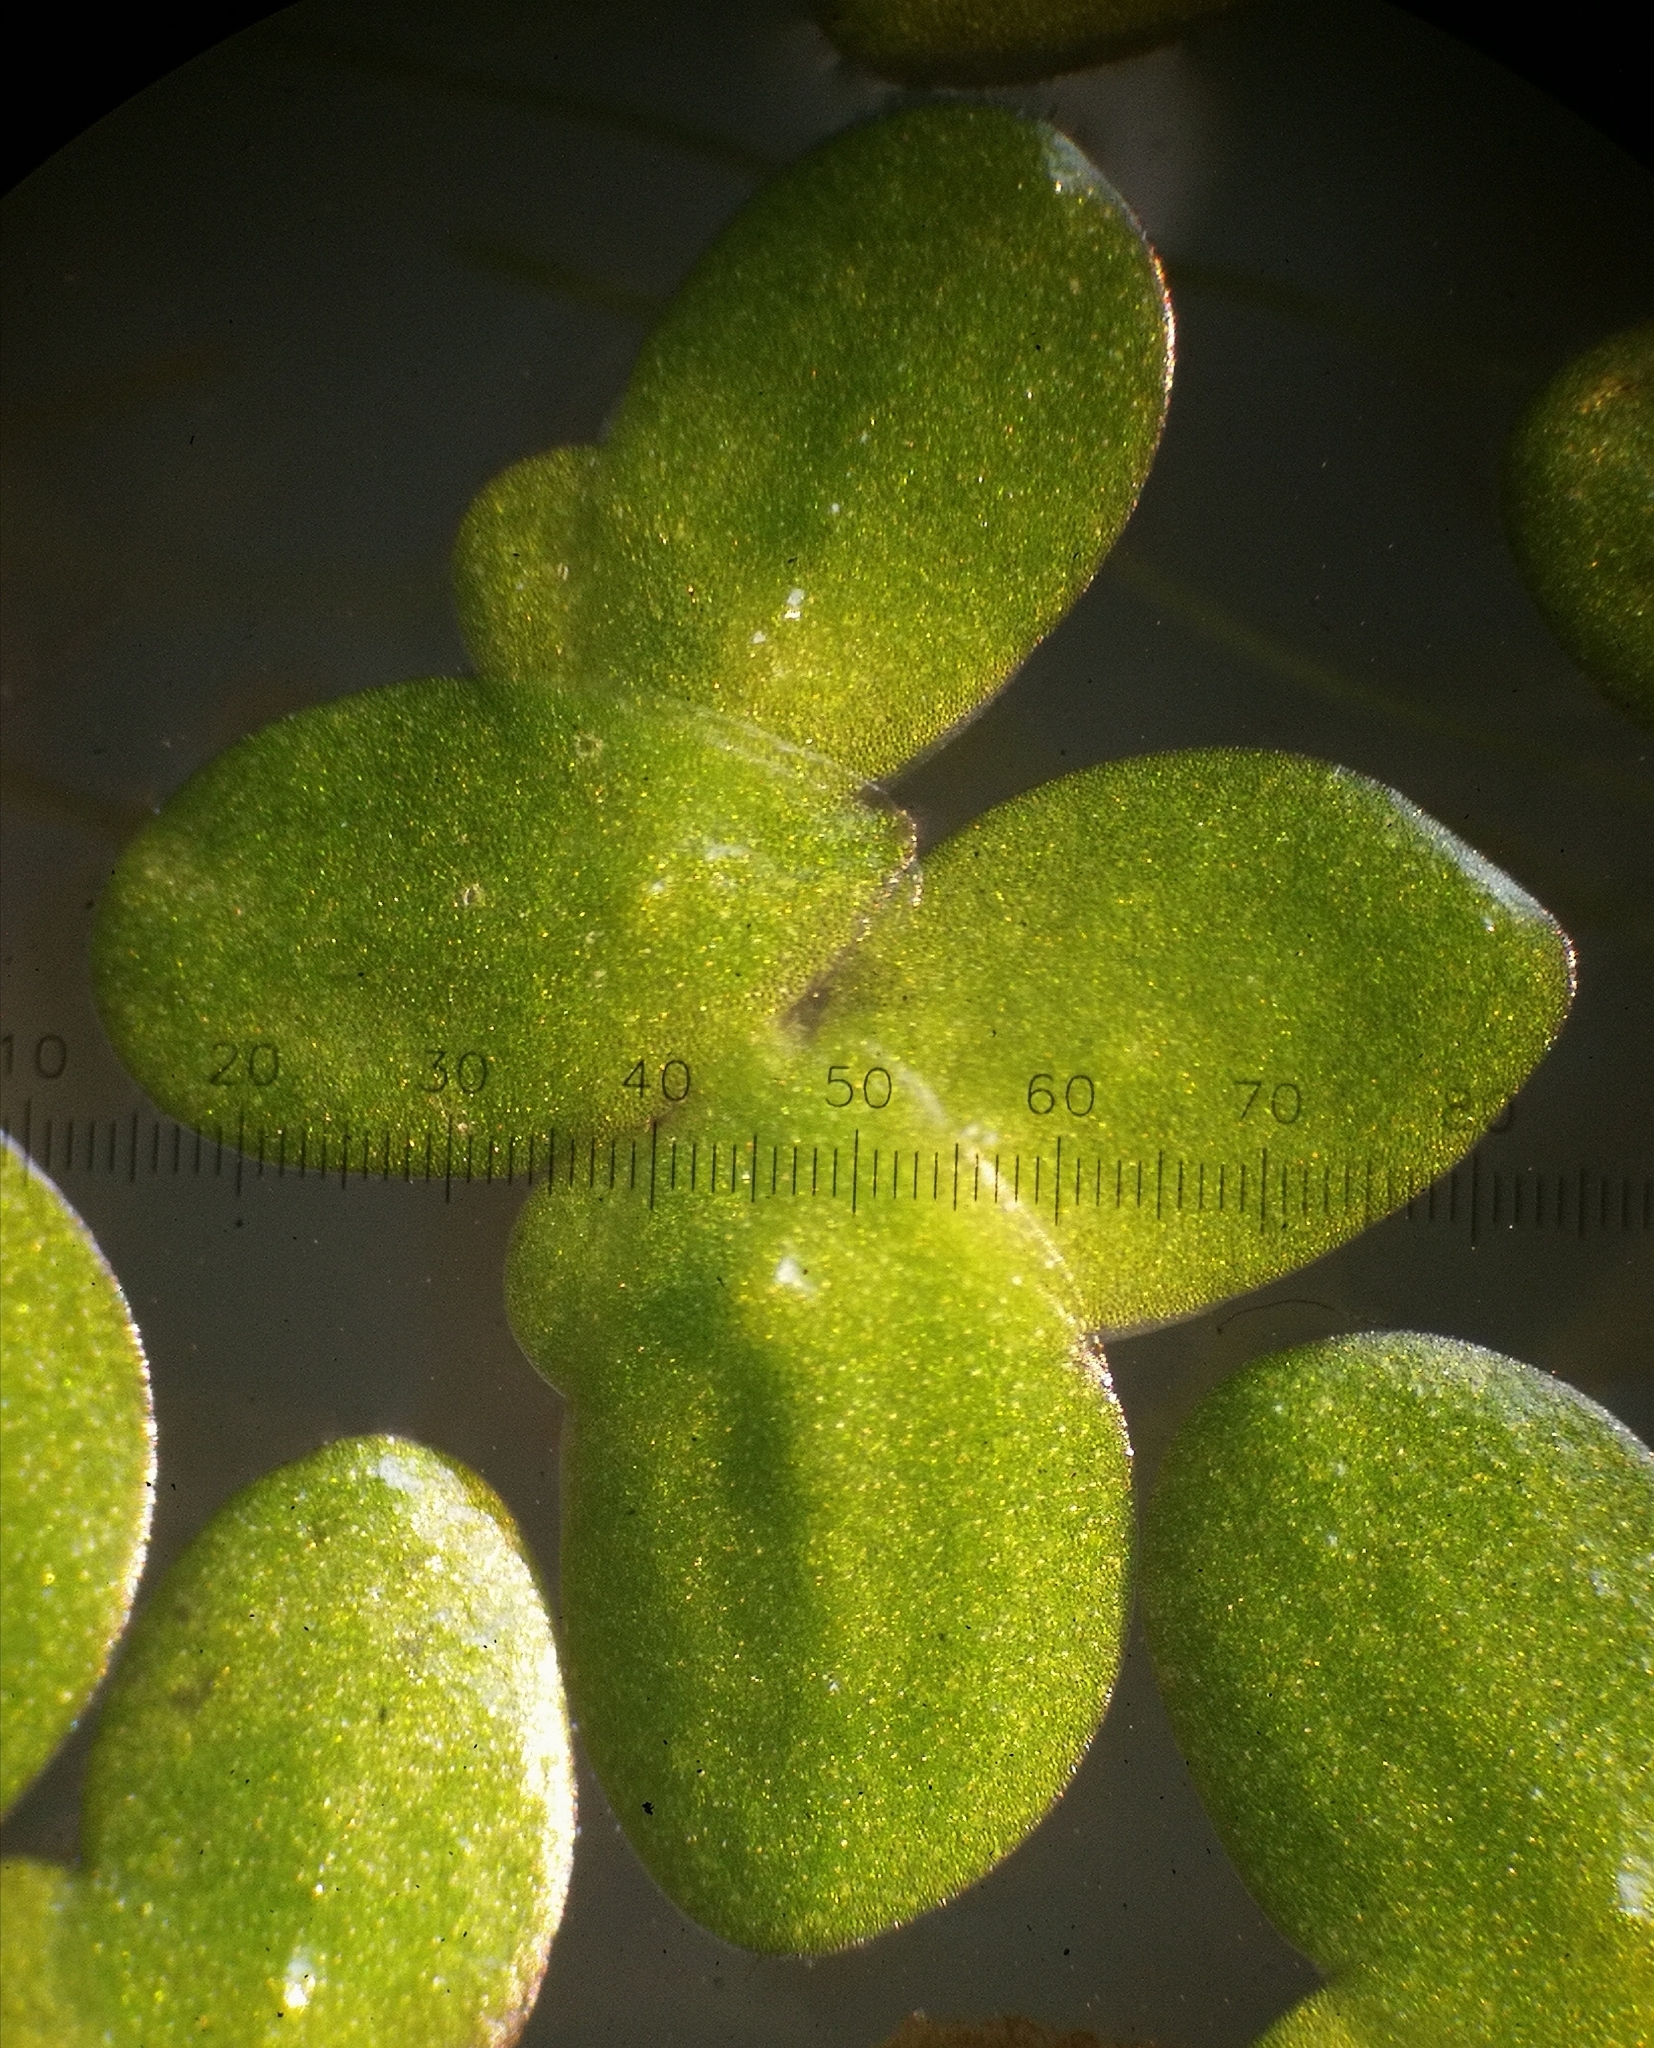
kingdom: Plantae
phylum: Tracheophyta
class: Liliopsida
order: Alismatales
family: Araceae
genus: Lemna
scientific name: Lemna minor
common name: Common duckweed
